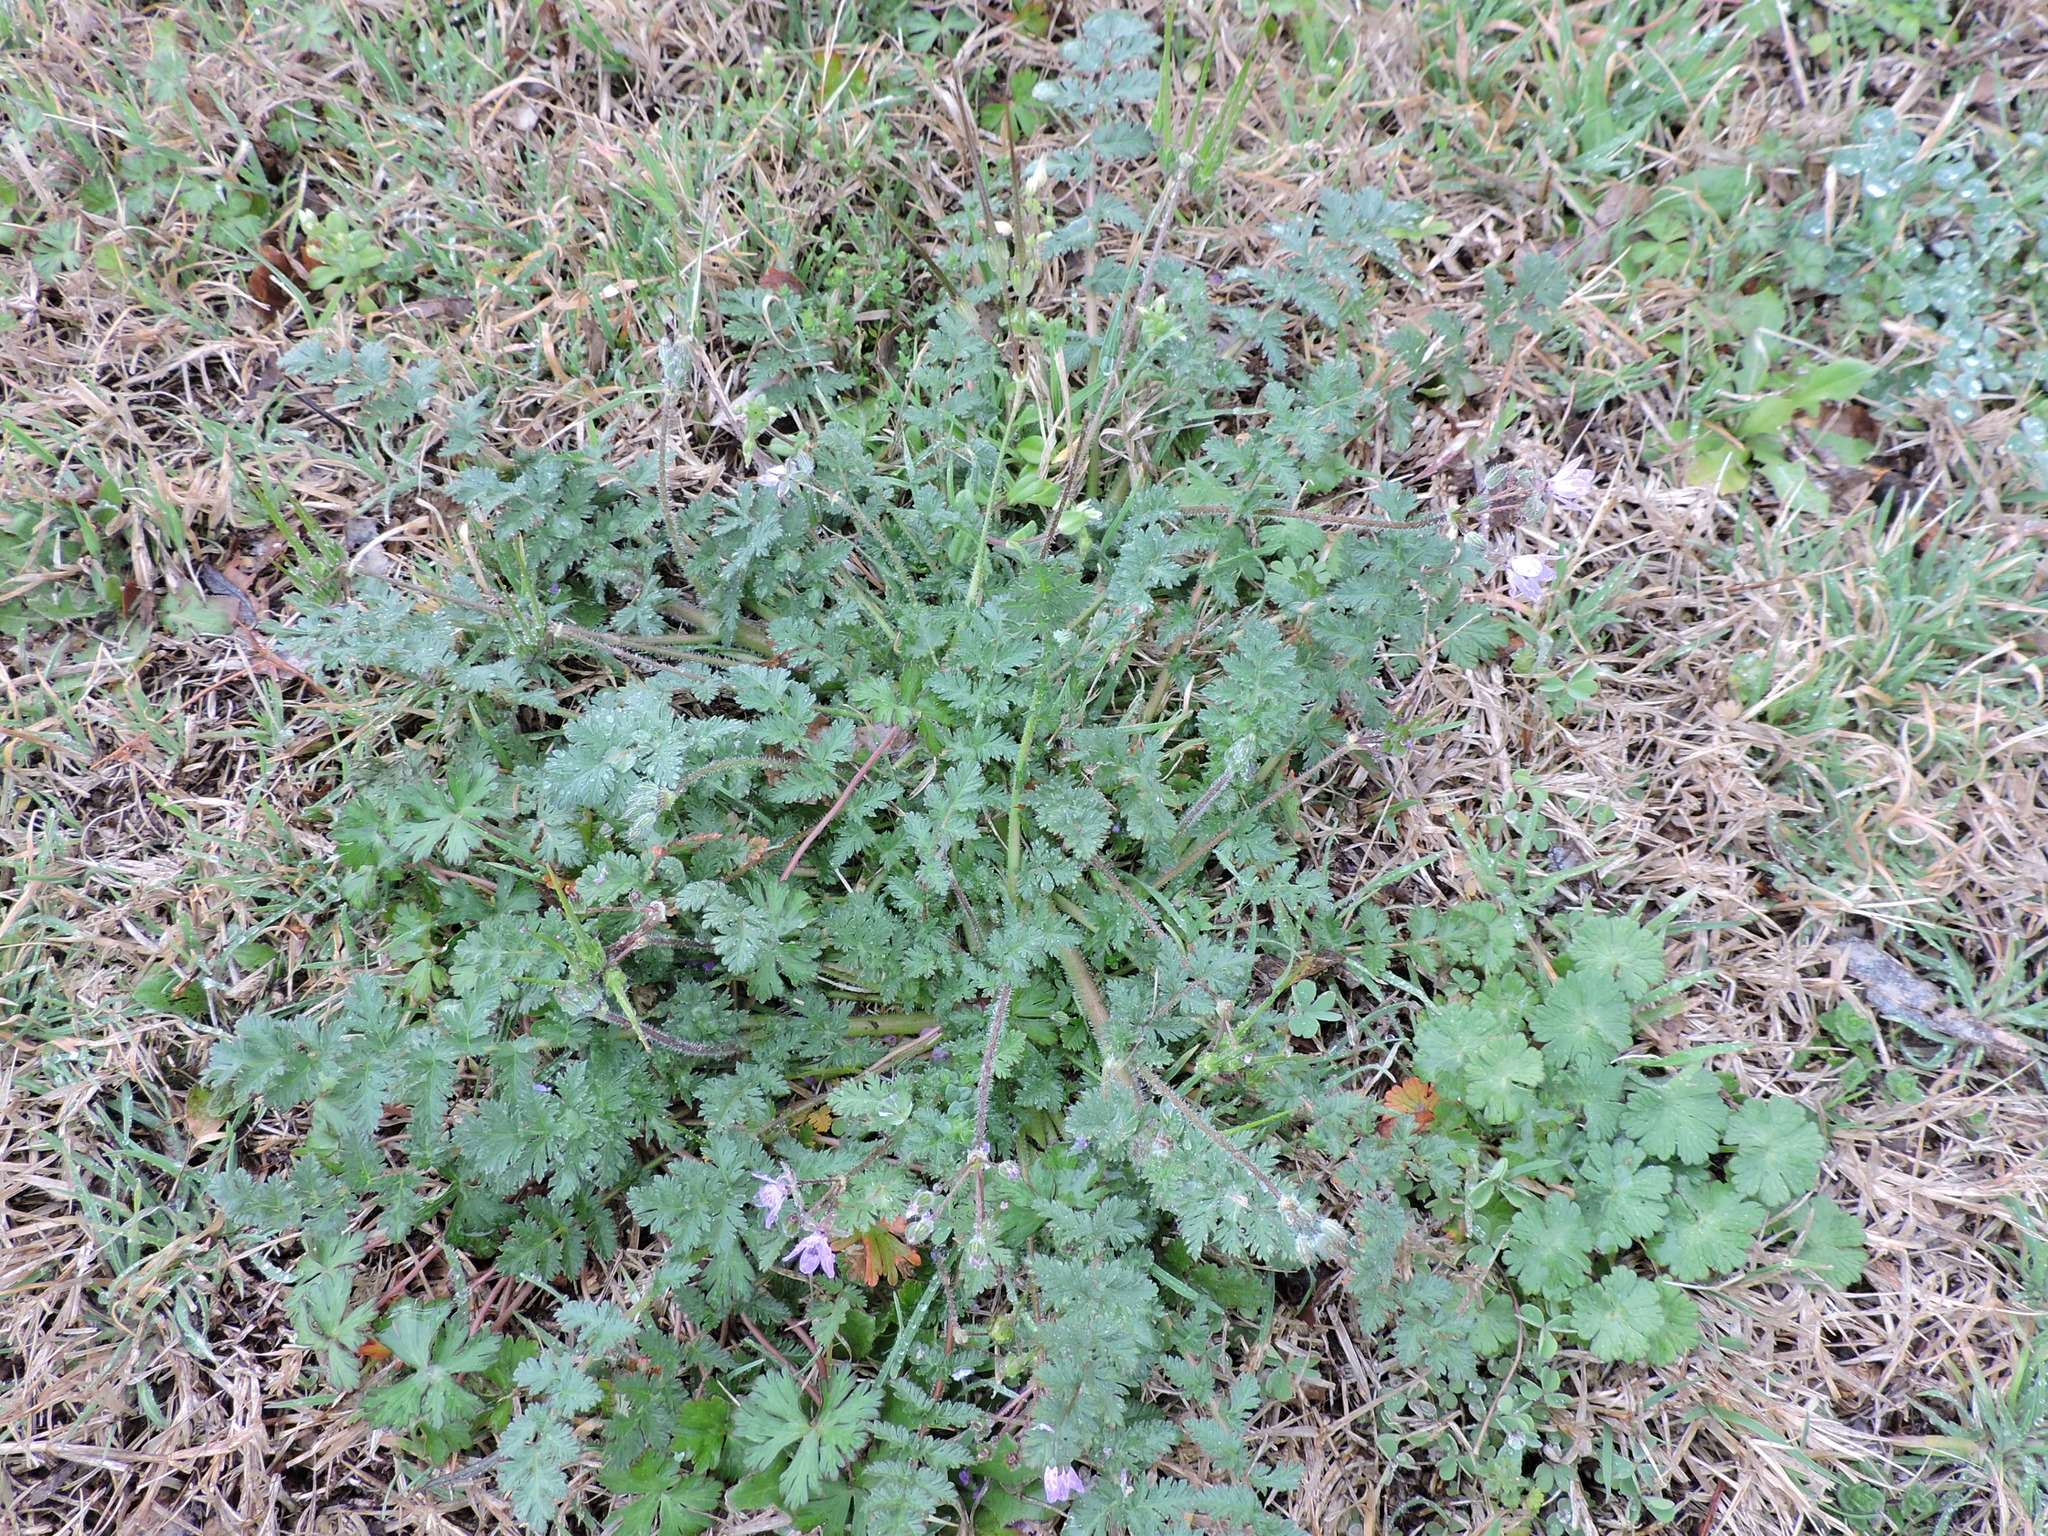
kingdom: Plantae
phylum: Tracheophyta
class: Magnoliopsida
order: Geraniales
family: Geraniaceae
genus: Erodium
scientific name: Erodium cicutarium
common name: Common stork's-bill
